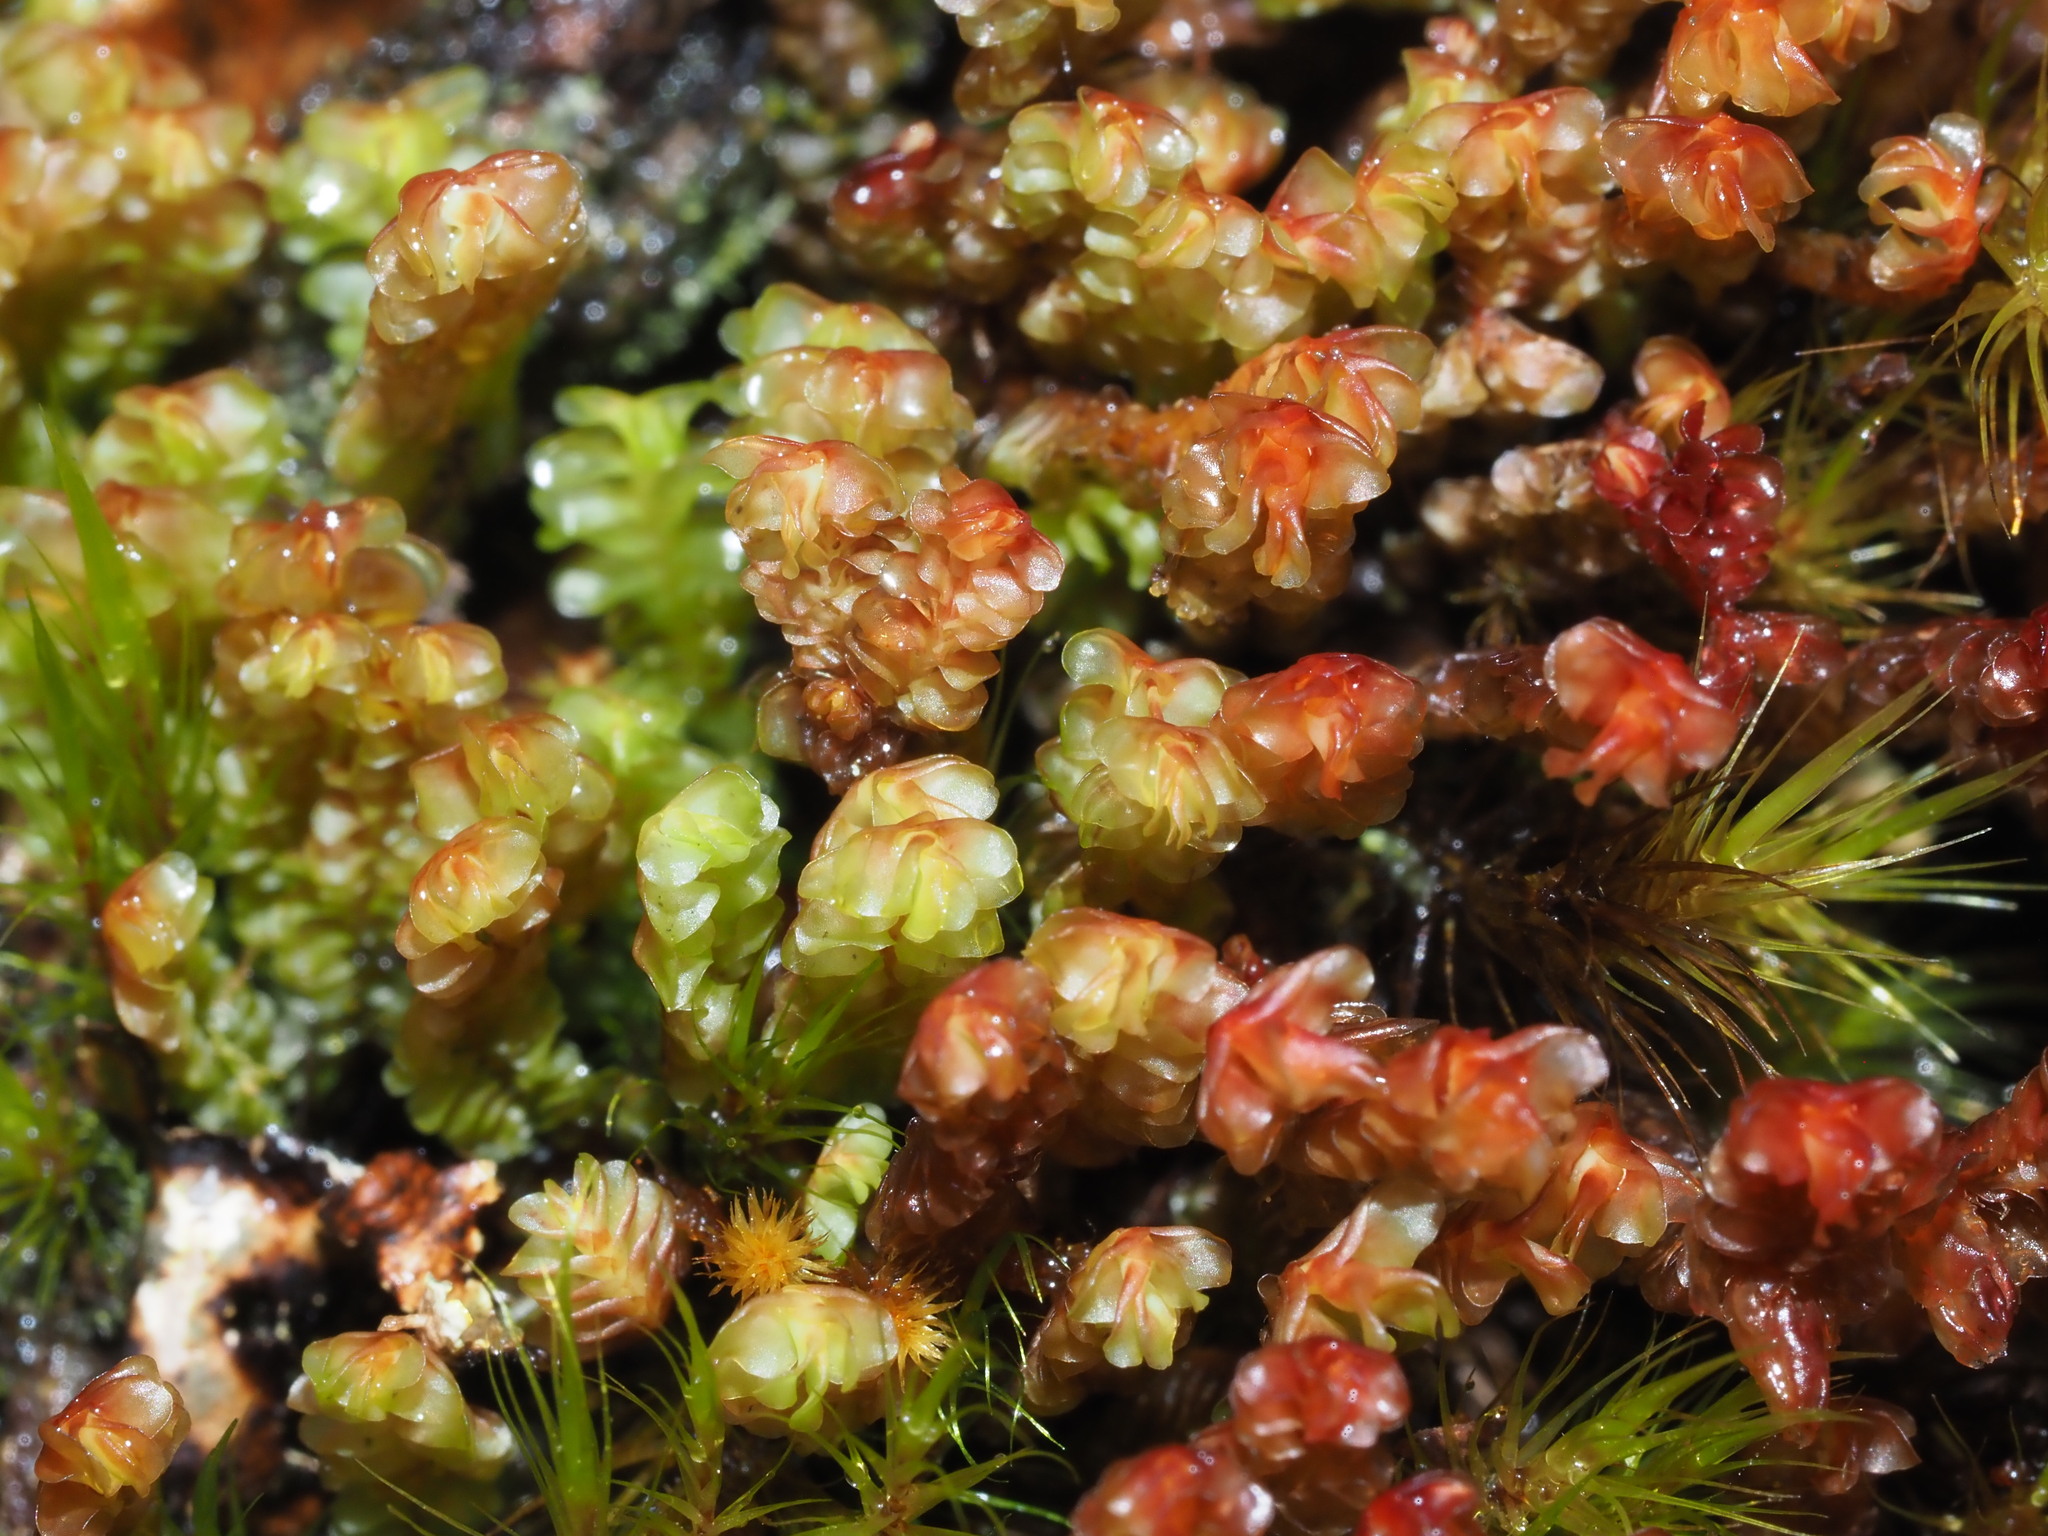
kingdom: Plantae
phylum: Marchantiophyta
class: Jungermanniopsida
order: Jungermanniales
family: Adelanthaceae
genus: Cuspidatula
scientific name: Cuspidatula robusta
